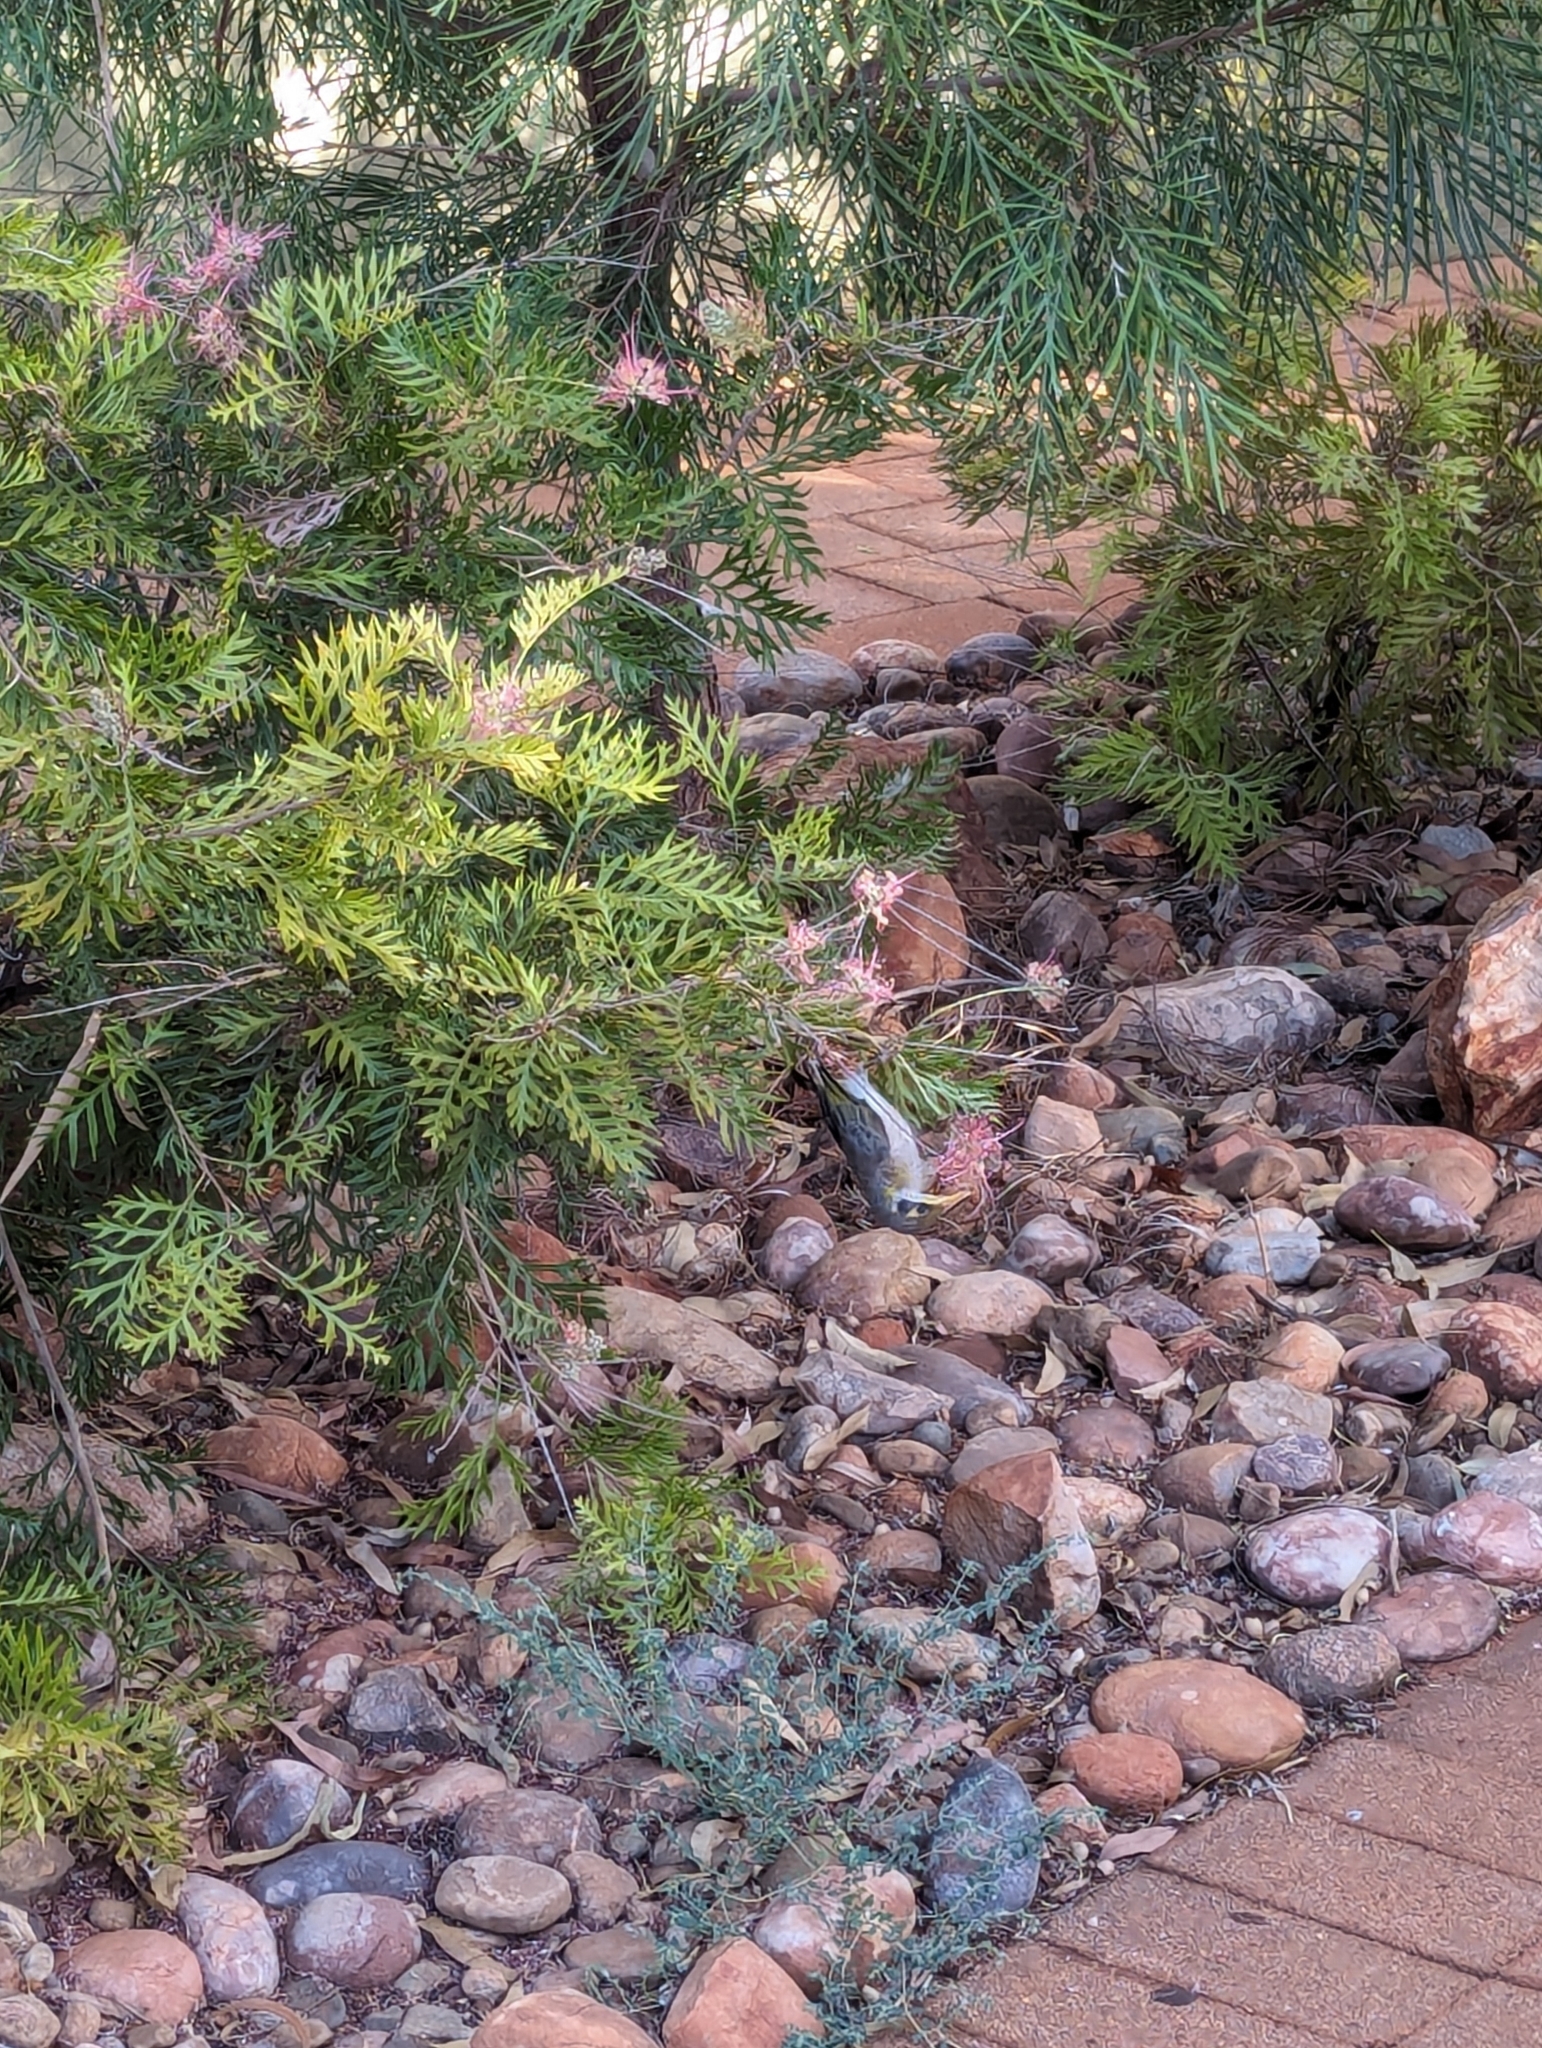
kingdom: Animalia
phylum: Chordata
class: Aves
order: Passeriformes
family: Meliphagidae
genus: Manorina
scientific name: Manorina flavigula
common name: Yellow-throated miner
